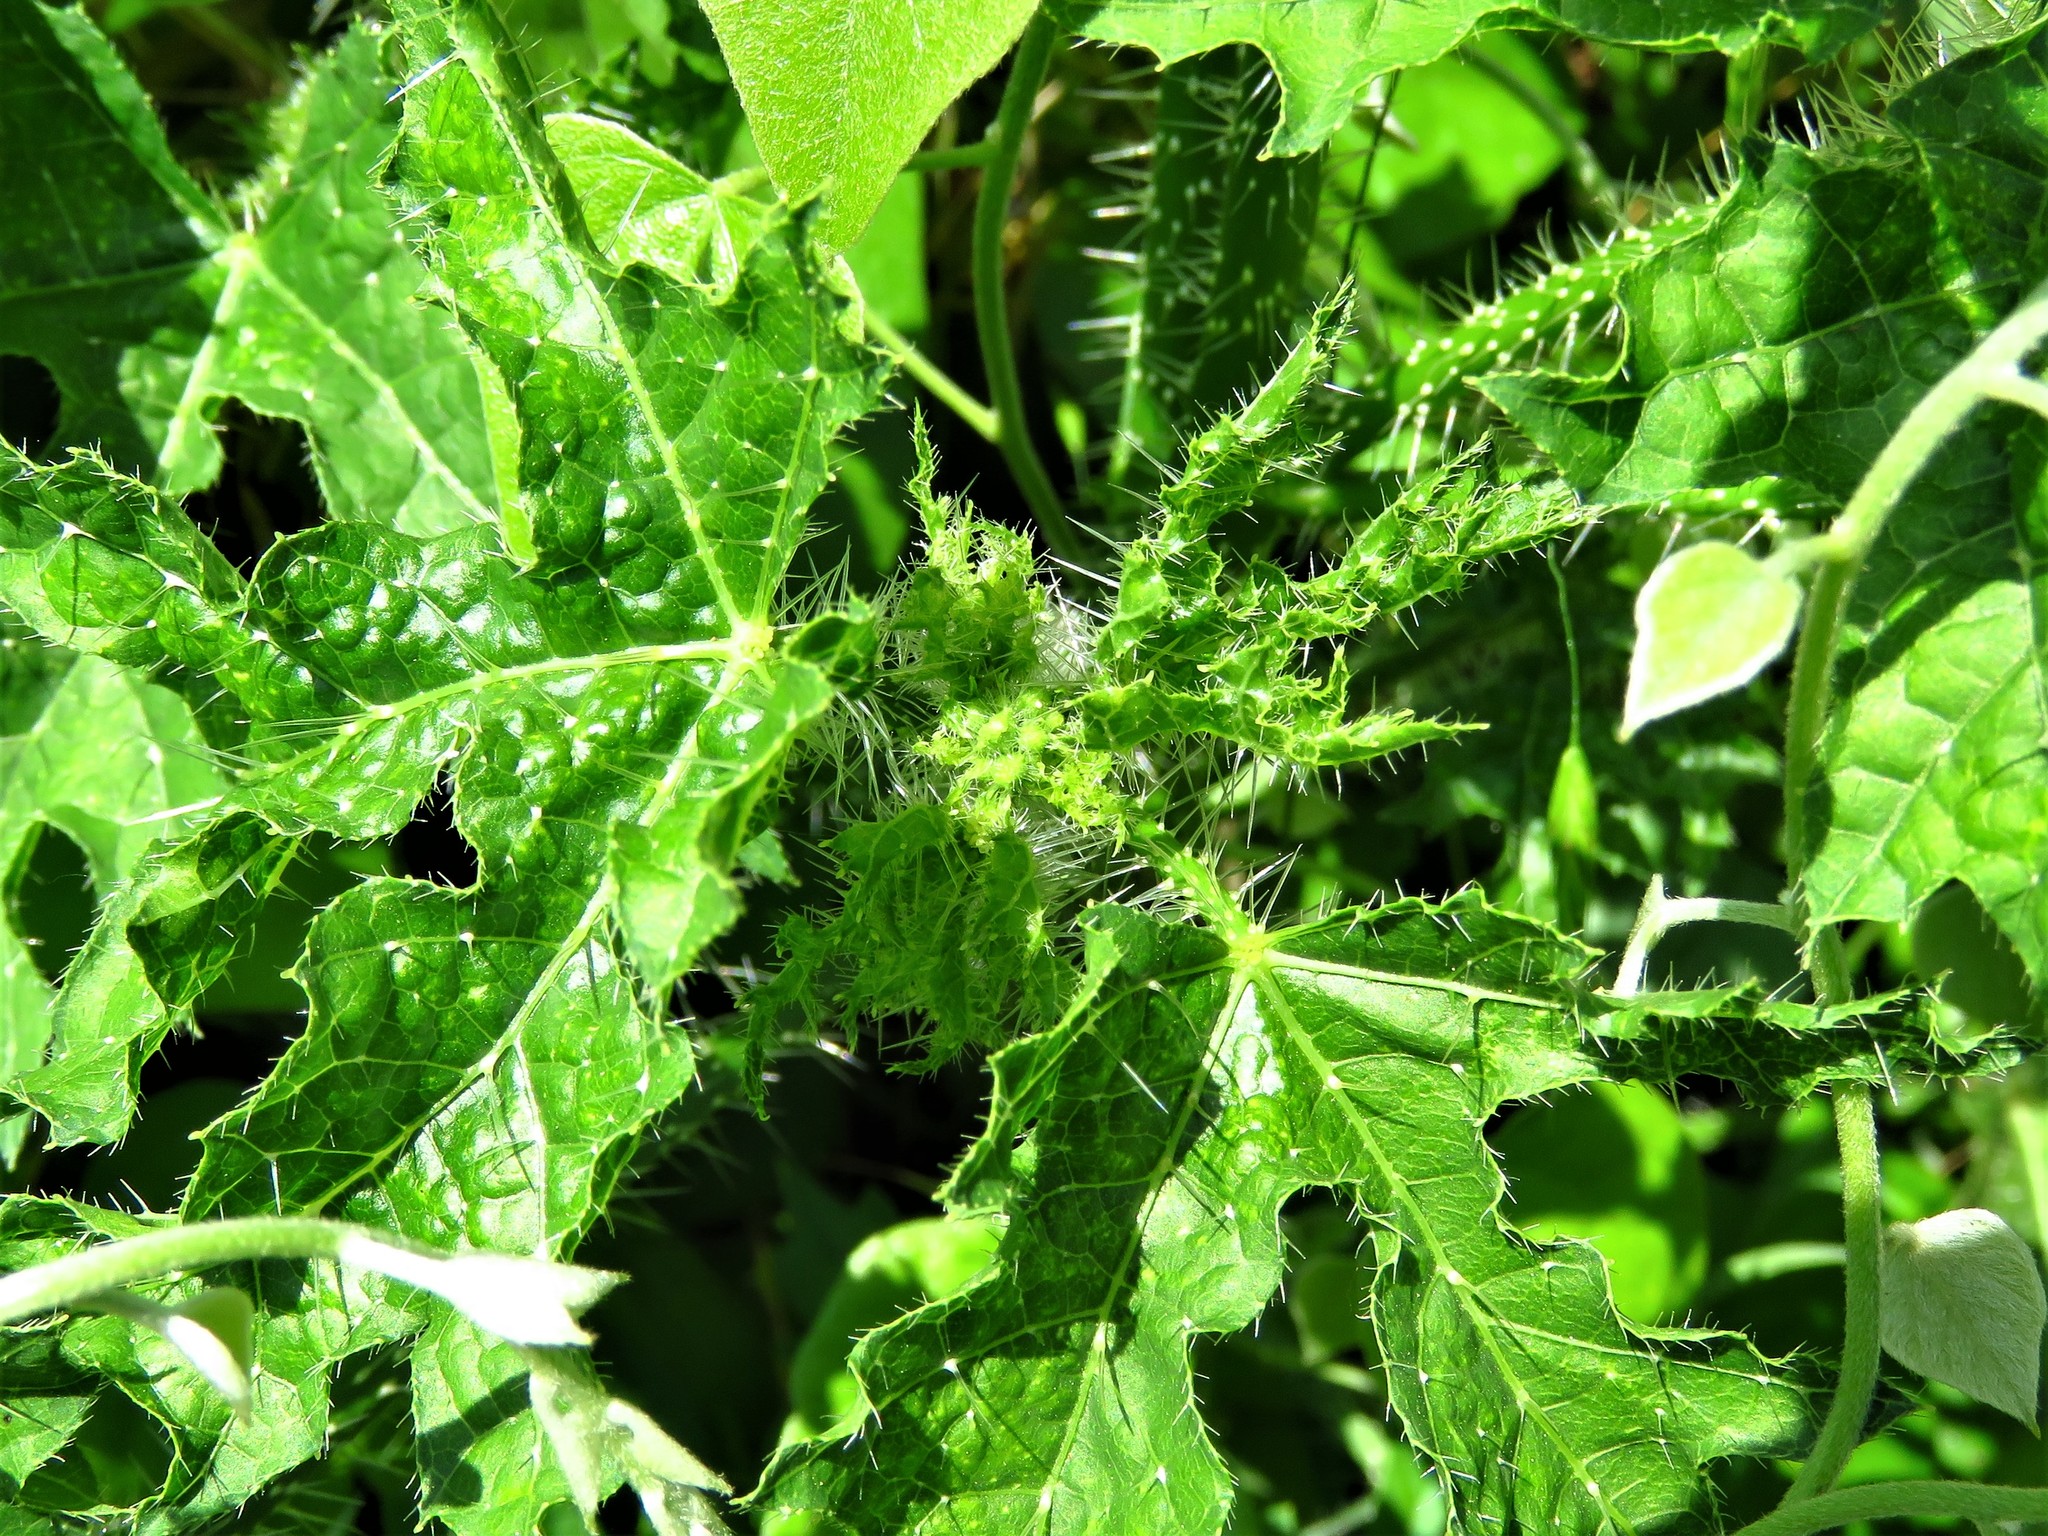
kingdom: Plantae
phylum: Tracheophyta
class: Magnoliopsida
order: Malpighiales
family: Euphorbiaceae
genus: Cnidoscolus
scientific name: Cnidoscolus texanus
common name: Texas bull-nettle
